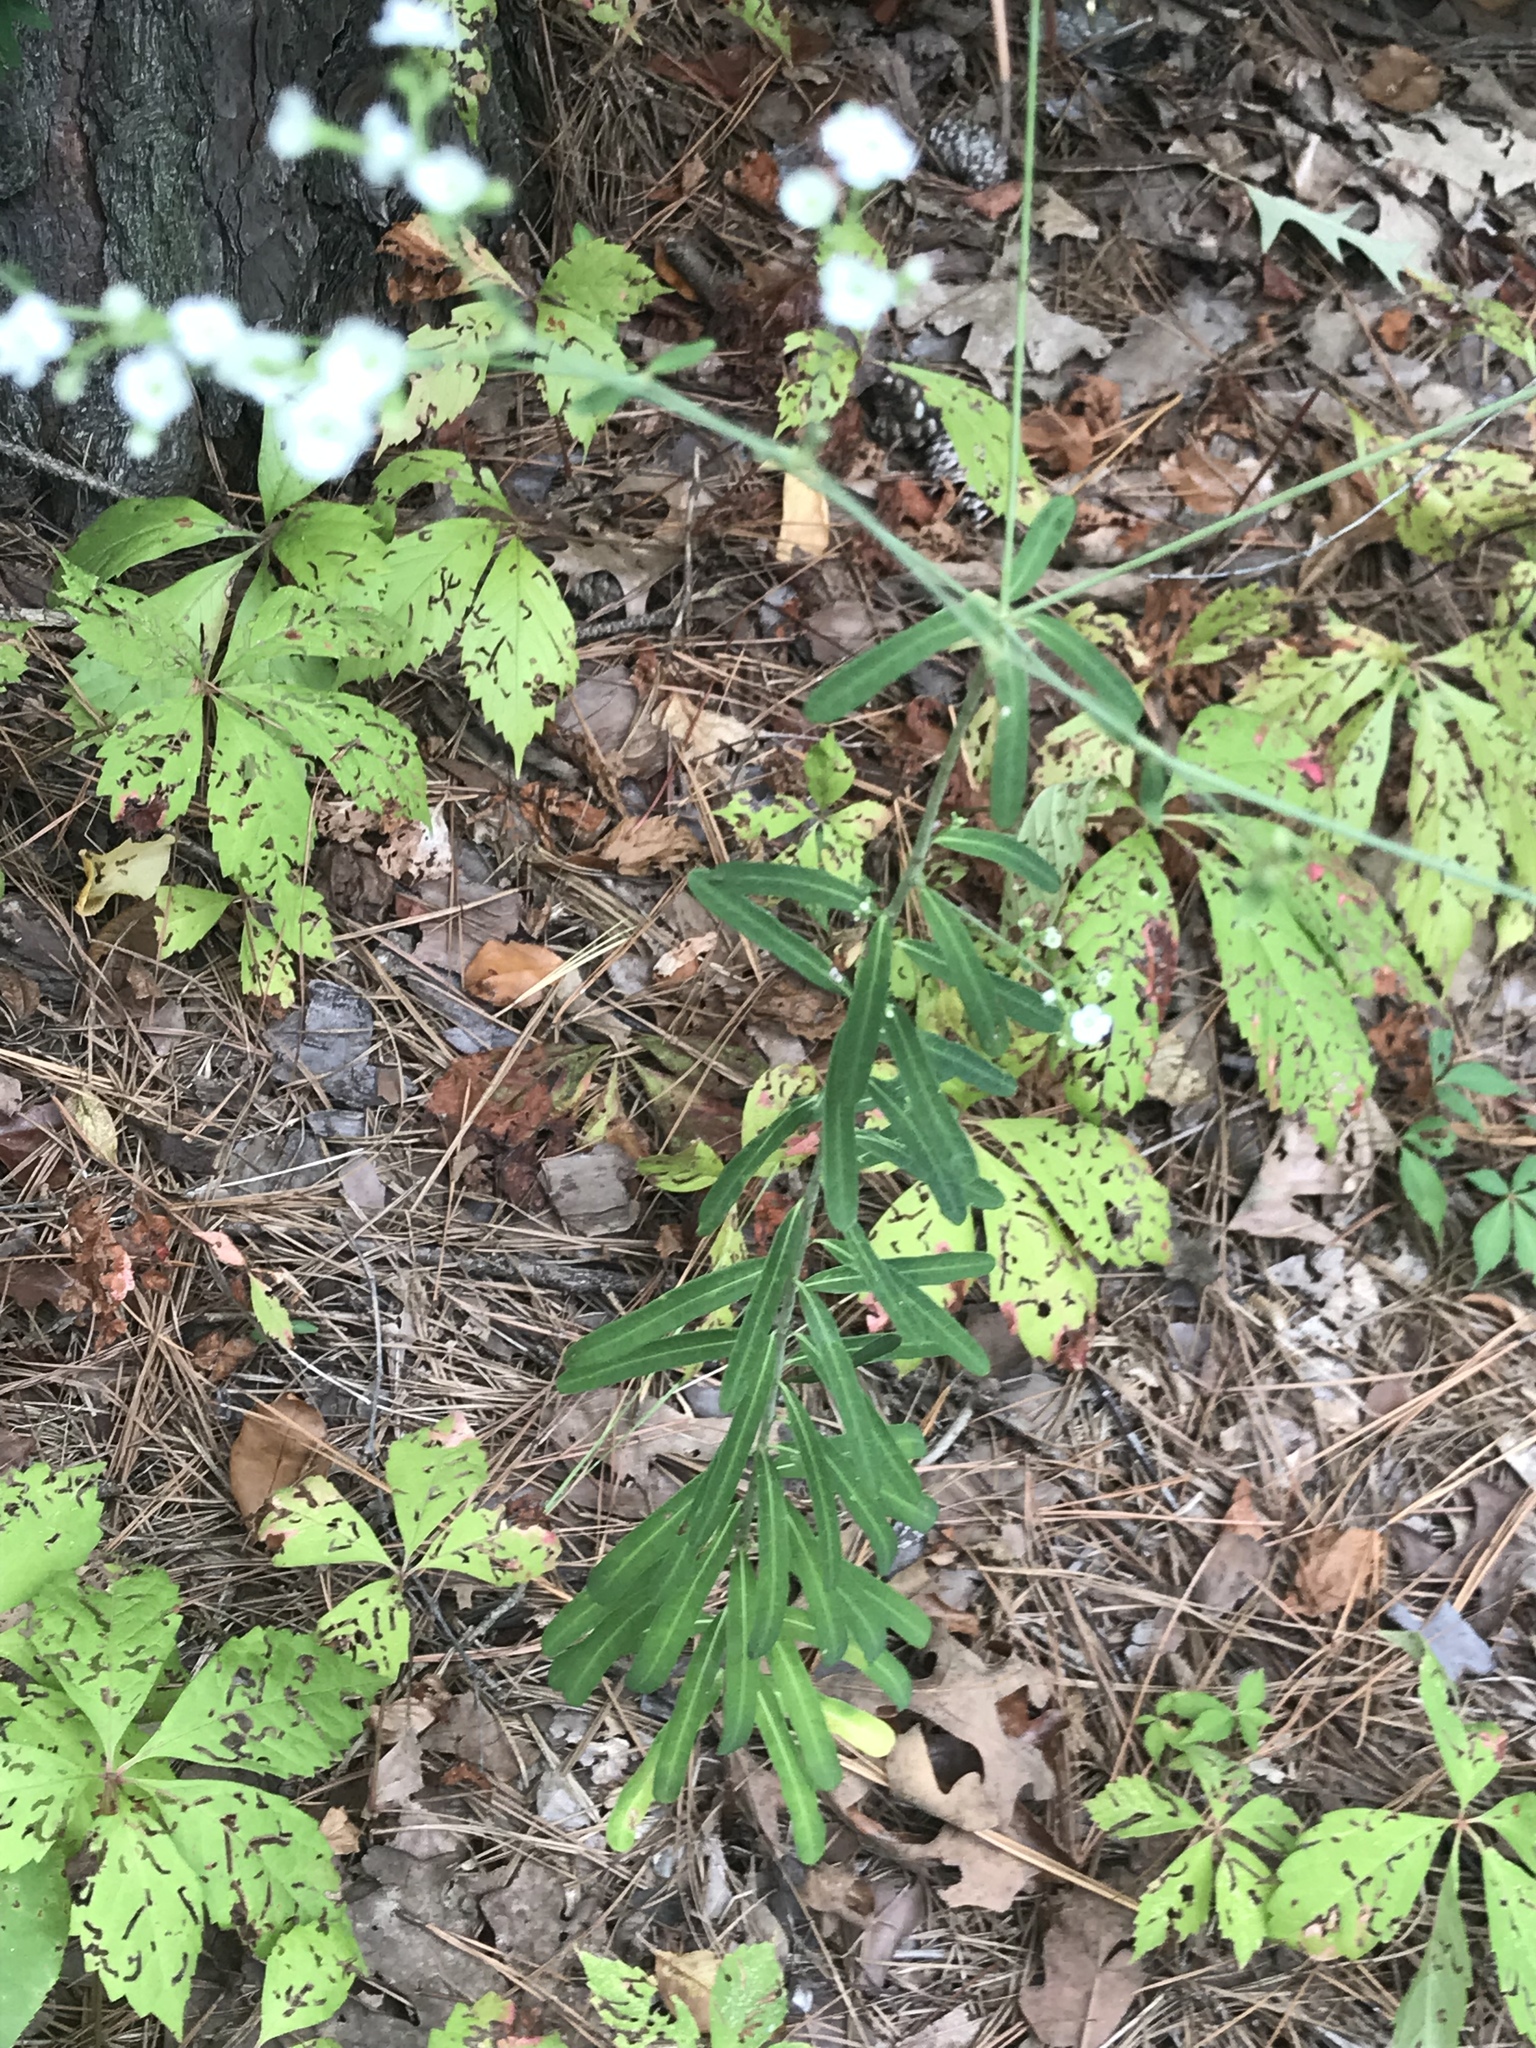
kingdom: Plantae
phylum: Tracheophyta
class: Magnoliopsida
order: Malpighiales
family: Euphorbiaceae
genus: Euphorbia
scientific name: Euphorbia corollata
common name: Flowering spurge
